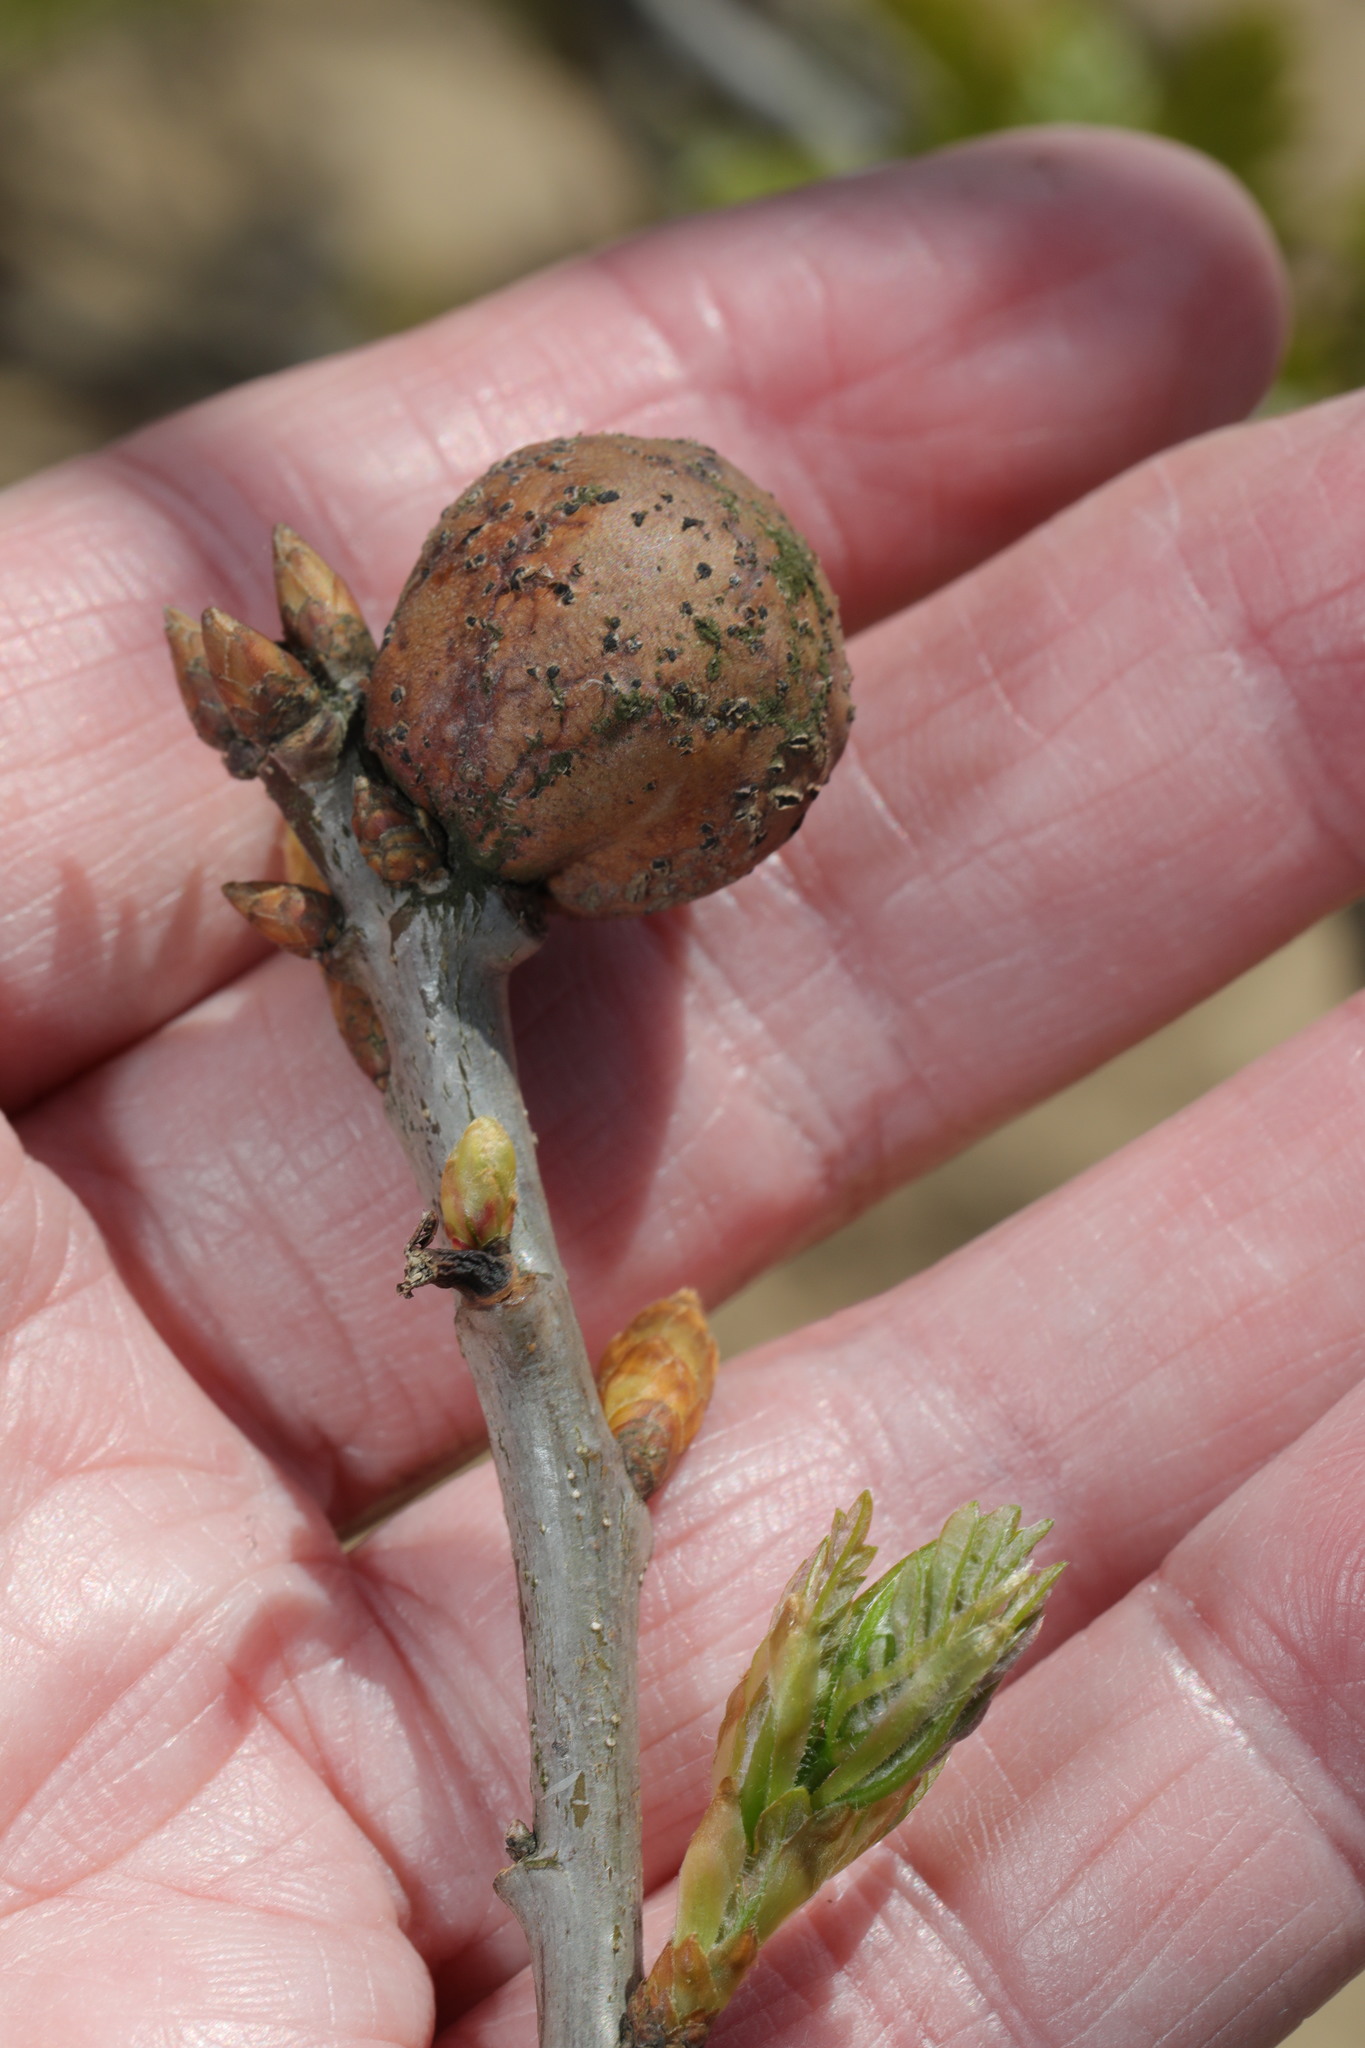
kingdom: Animalia
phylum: Arthropoda
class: Insecta
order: Hymenoptera
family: Cynipidae
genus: Andricus
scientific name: Andricus kollari
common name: Marble gall
